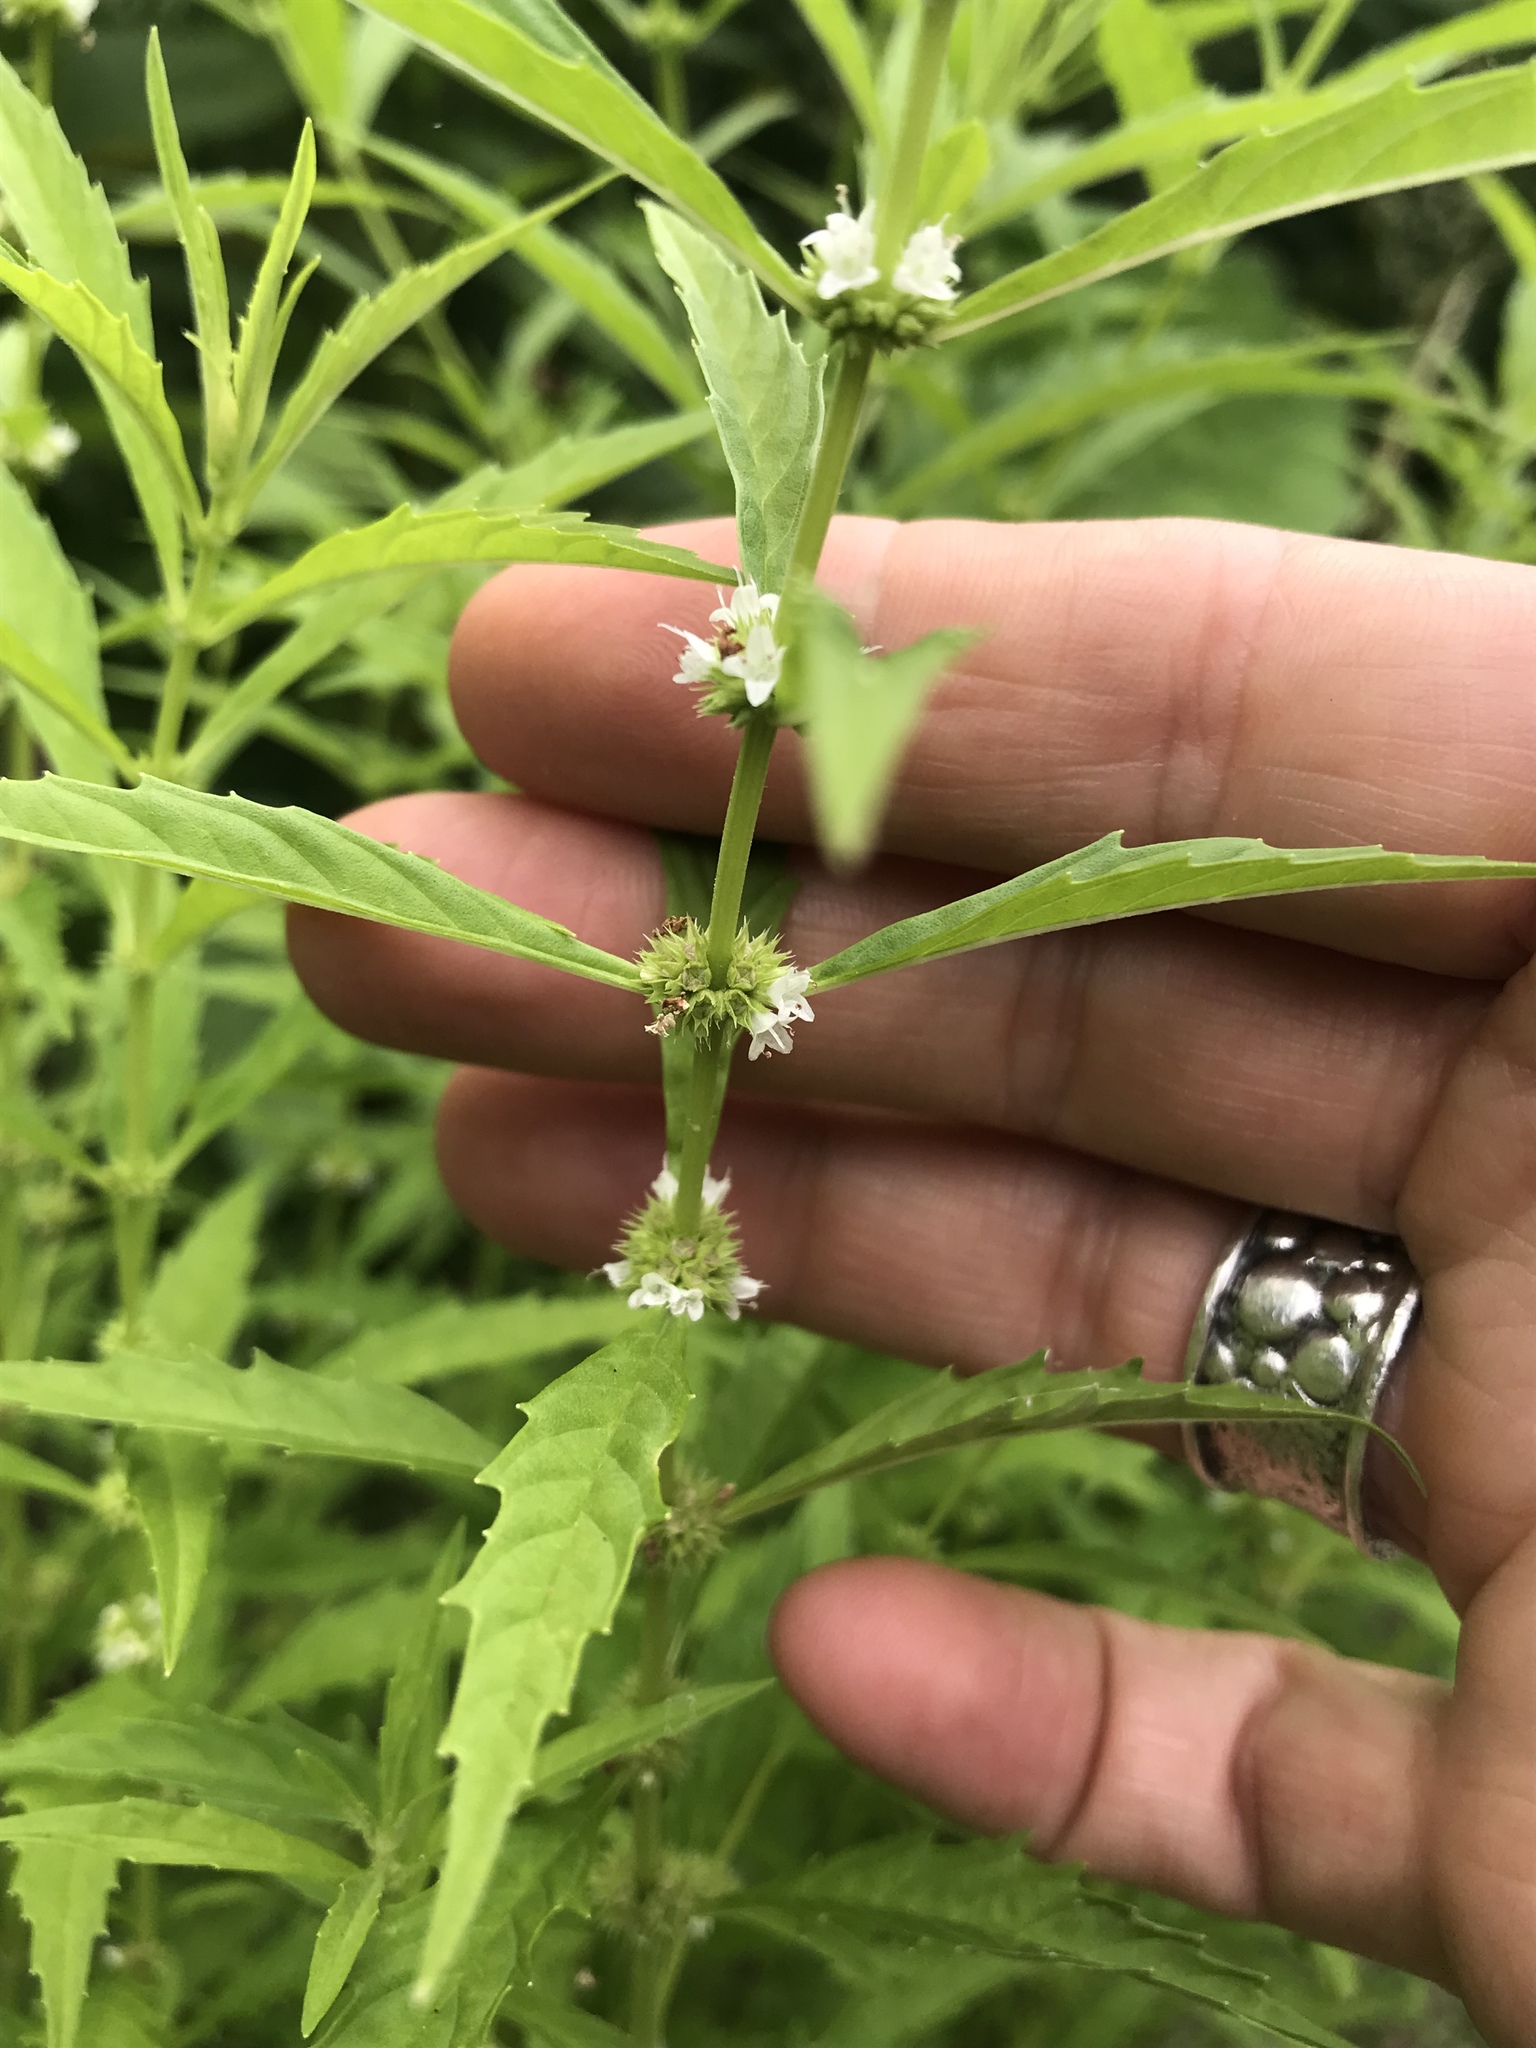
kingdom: Plantae
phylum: Tracheophyta
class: Magnoliopsida
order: Lamiales
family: Lamiaceae
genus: Lycopus
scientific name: Lycopus uniflorus
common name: Northern bugleweed
